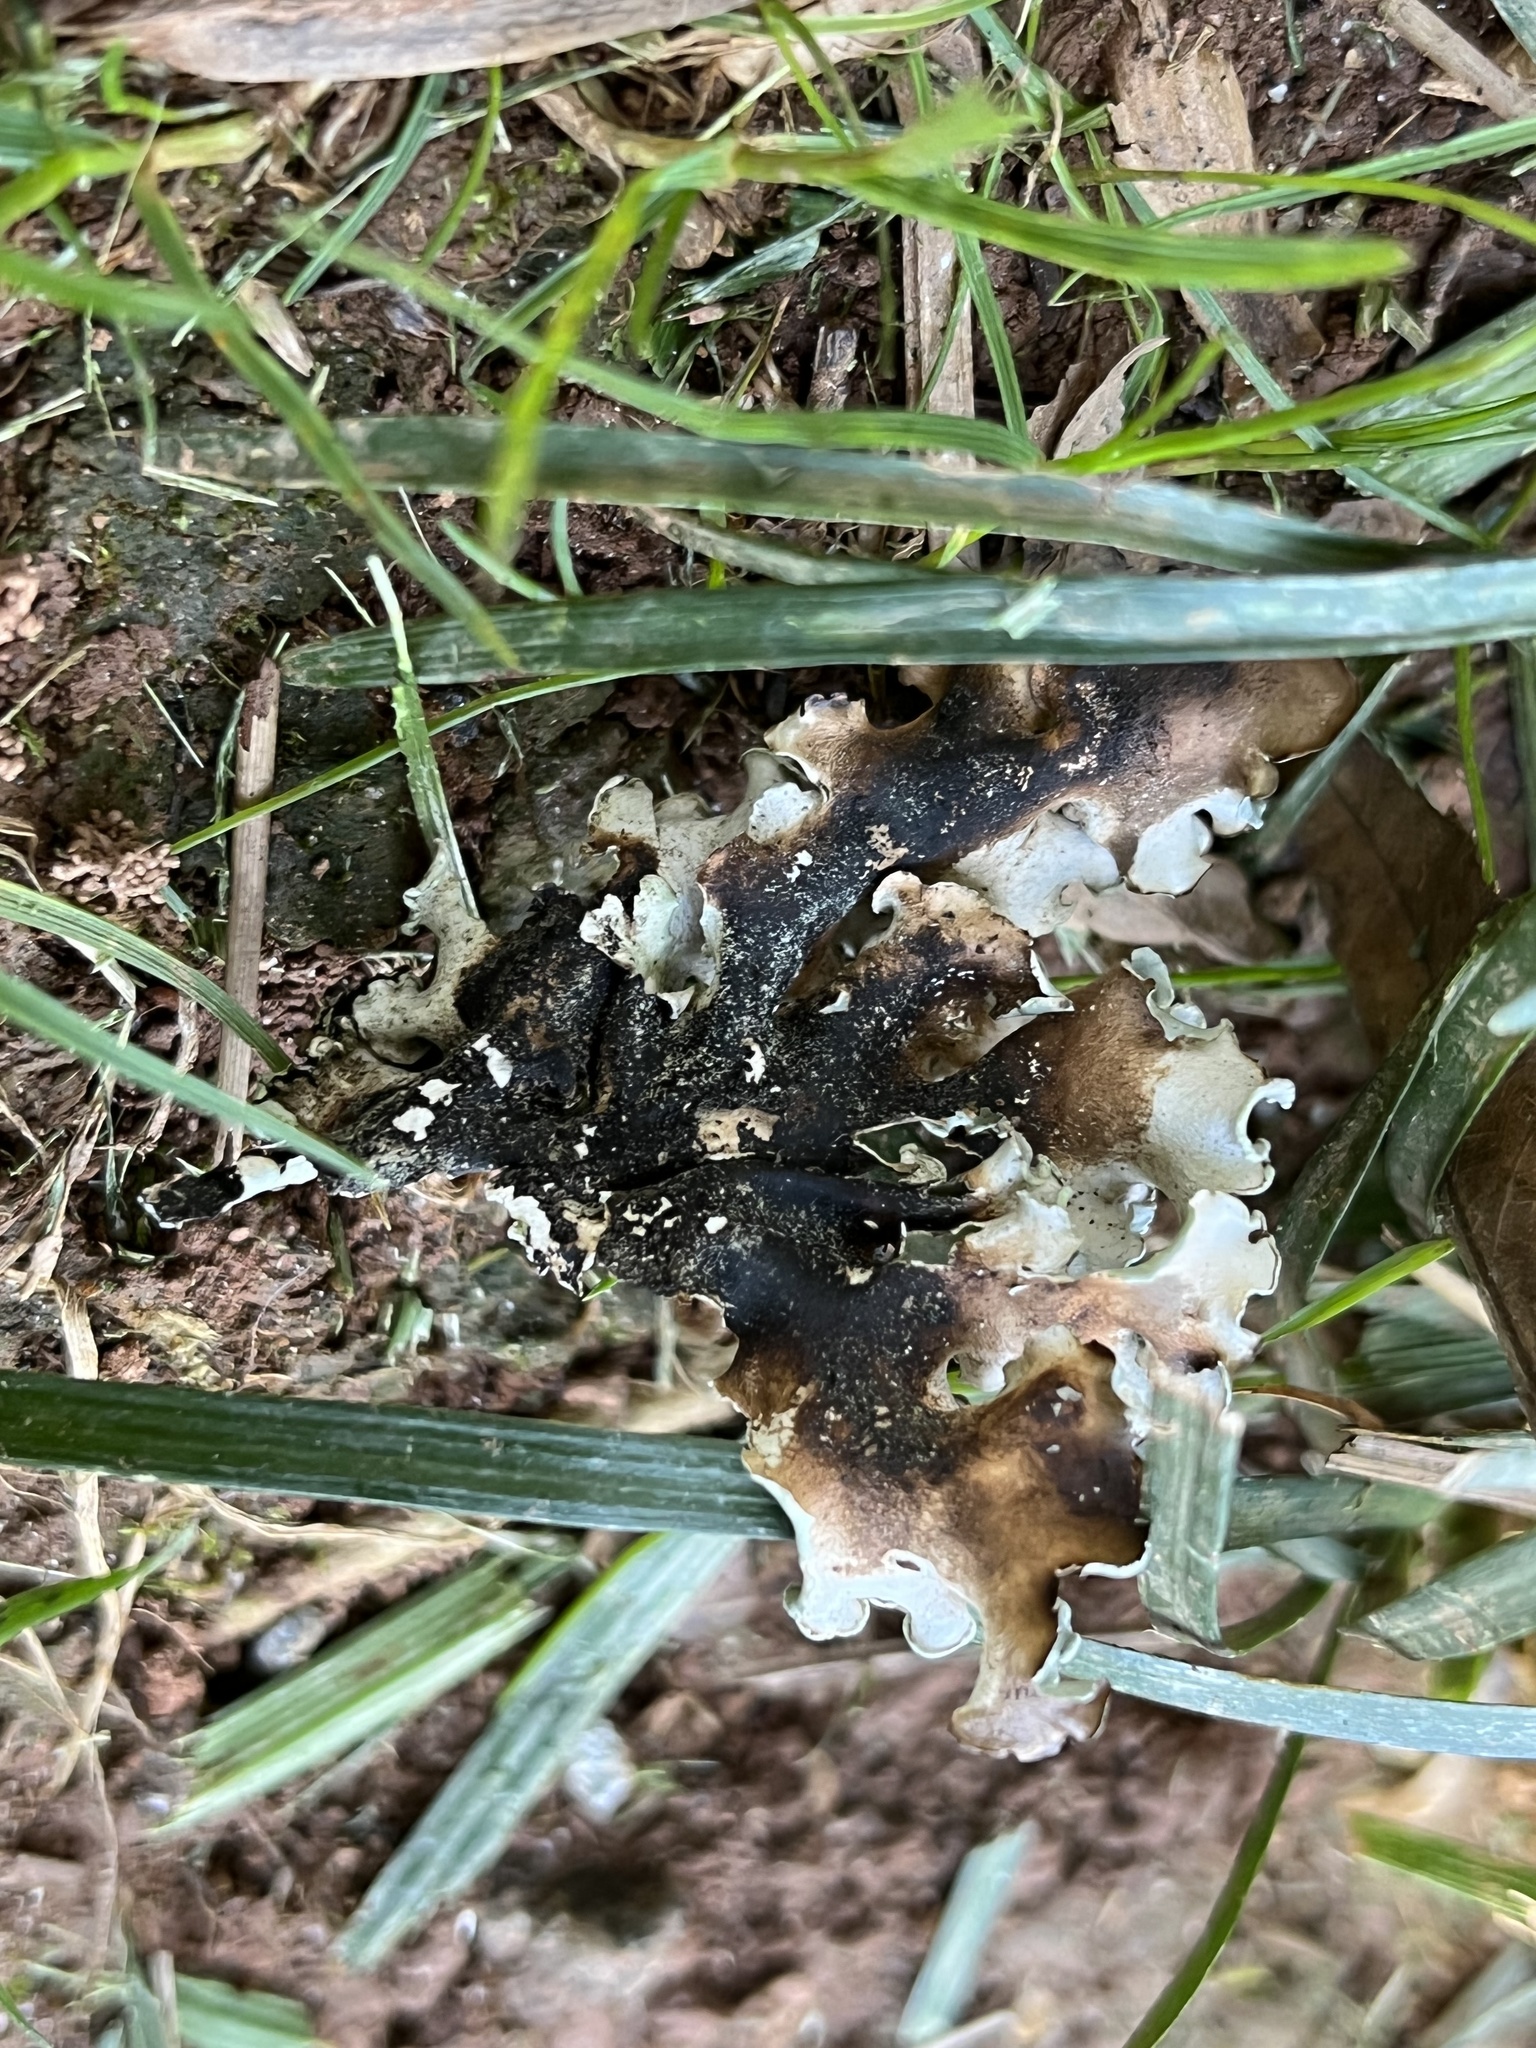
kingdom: Fungi
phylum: Ascomycota
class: Lecanoromycetes
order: Lecanorales
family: Parmeliaceae
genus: Parmotrema
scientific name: Parmotrema austrosinense
